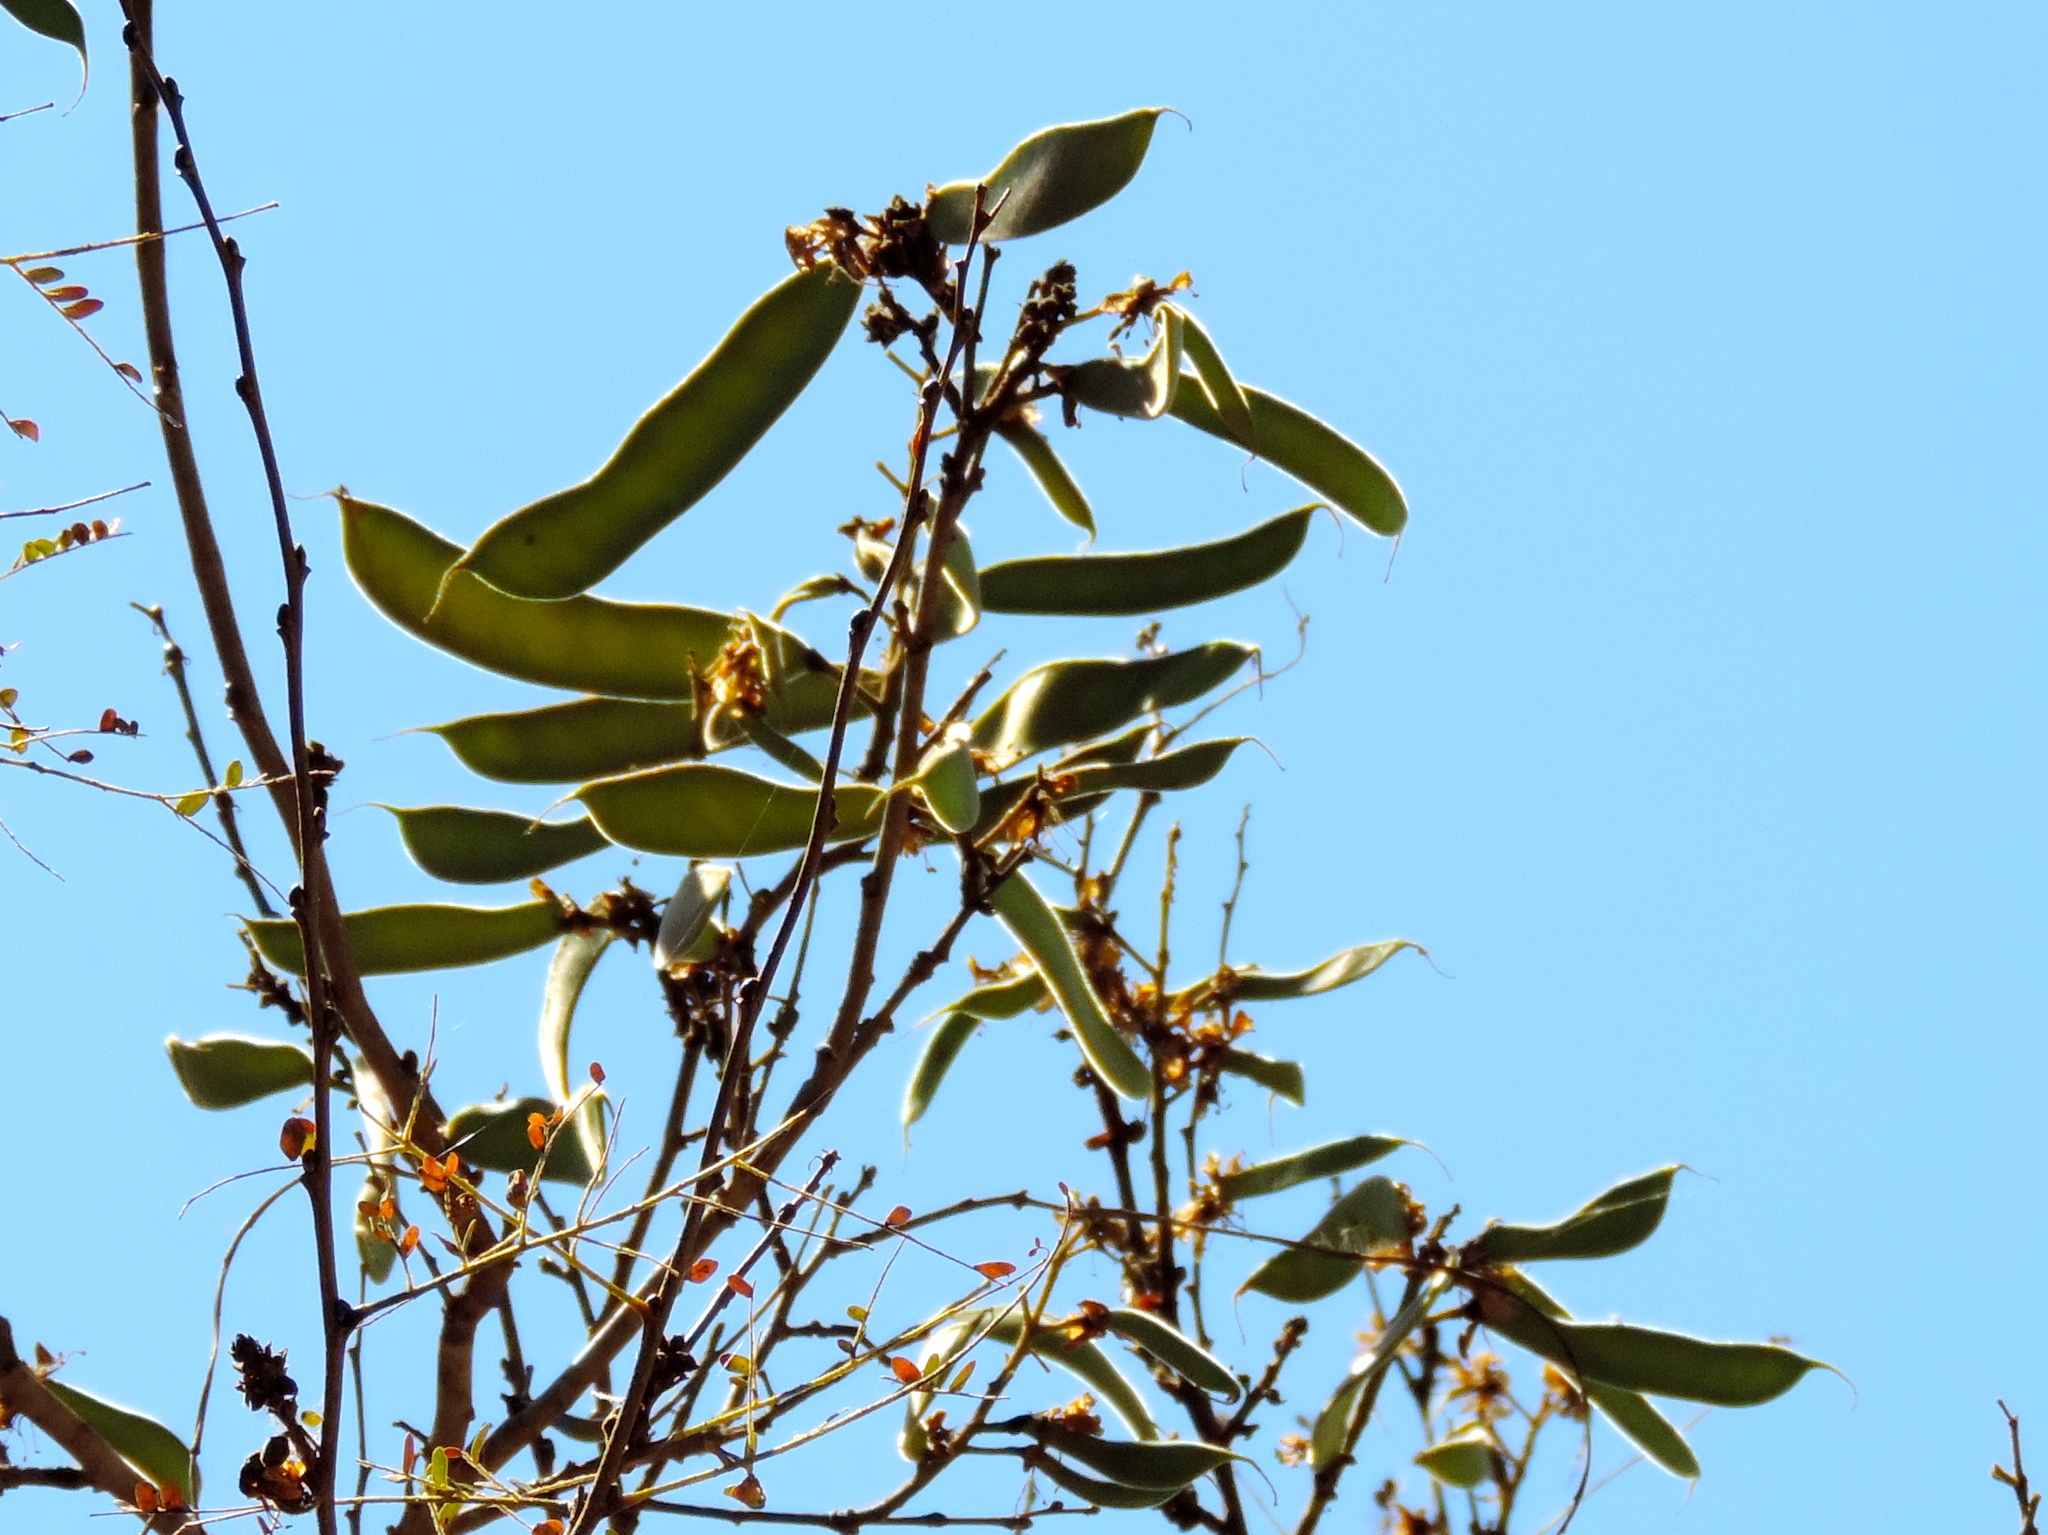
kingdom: Plantae
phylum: Tracheophyta
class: Magnoliopsida
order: Fabales
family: Fabaceae
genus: Cenostigma
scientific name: Cenostigma eriostachys
